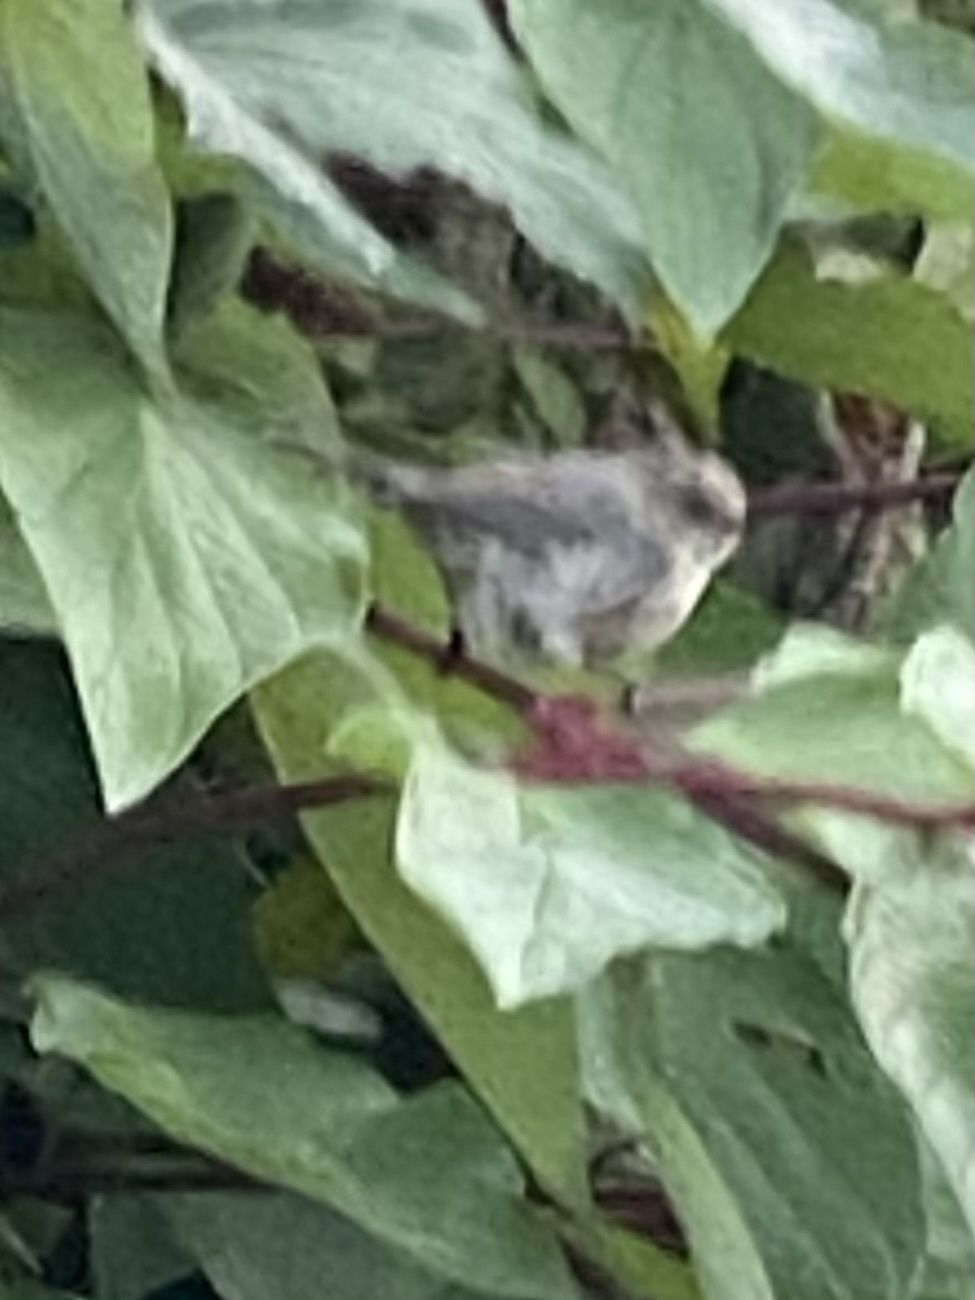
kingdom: Animalia
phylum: Chordata
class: Aves
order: Passeriformes
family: Aegithalidae
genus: Psaltriparus
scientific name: Psaltriparus minimus
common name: American bushtit
